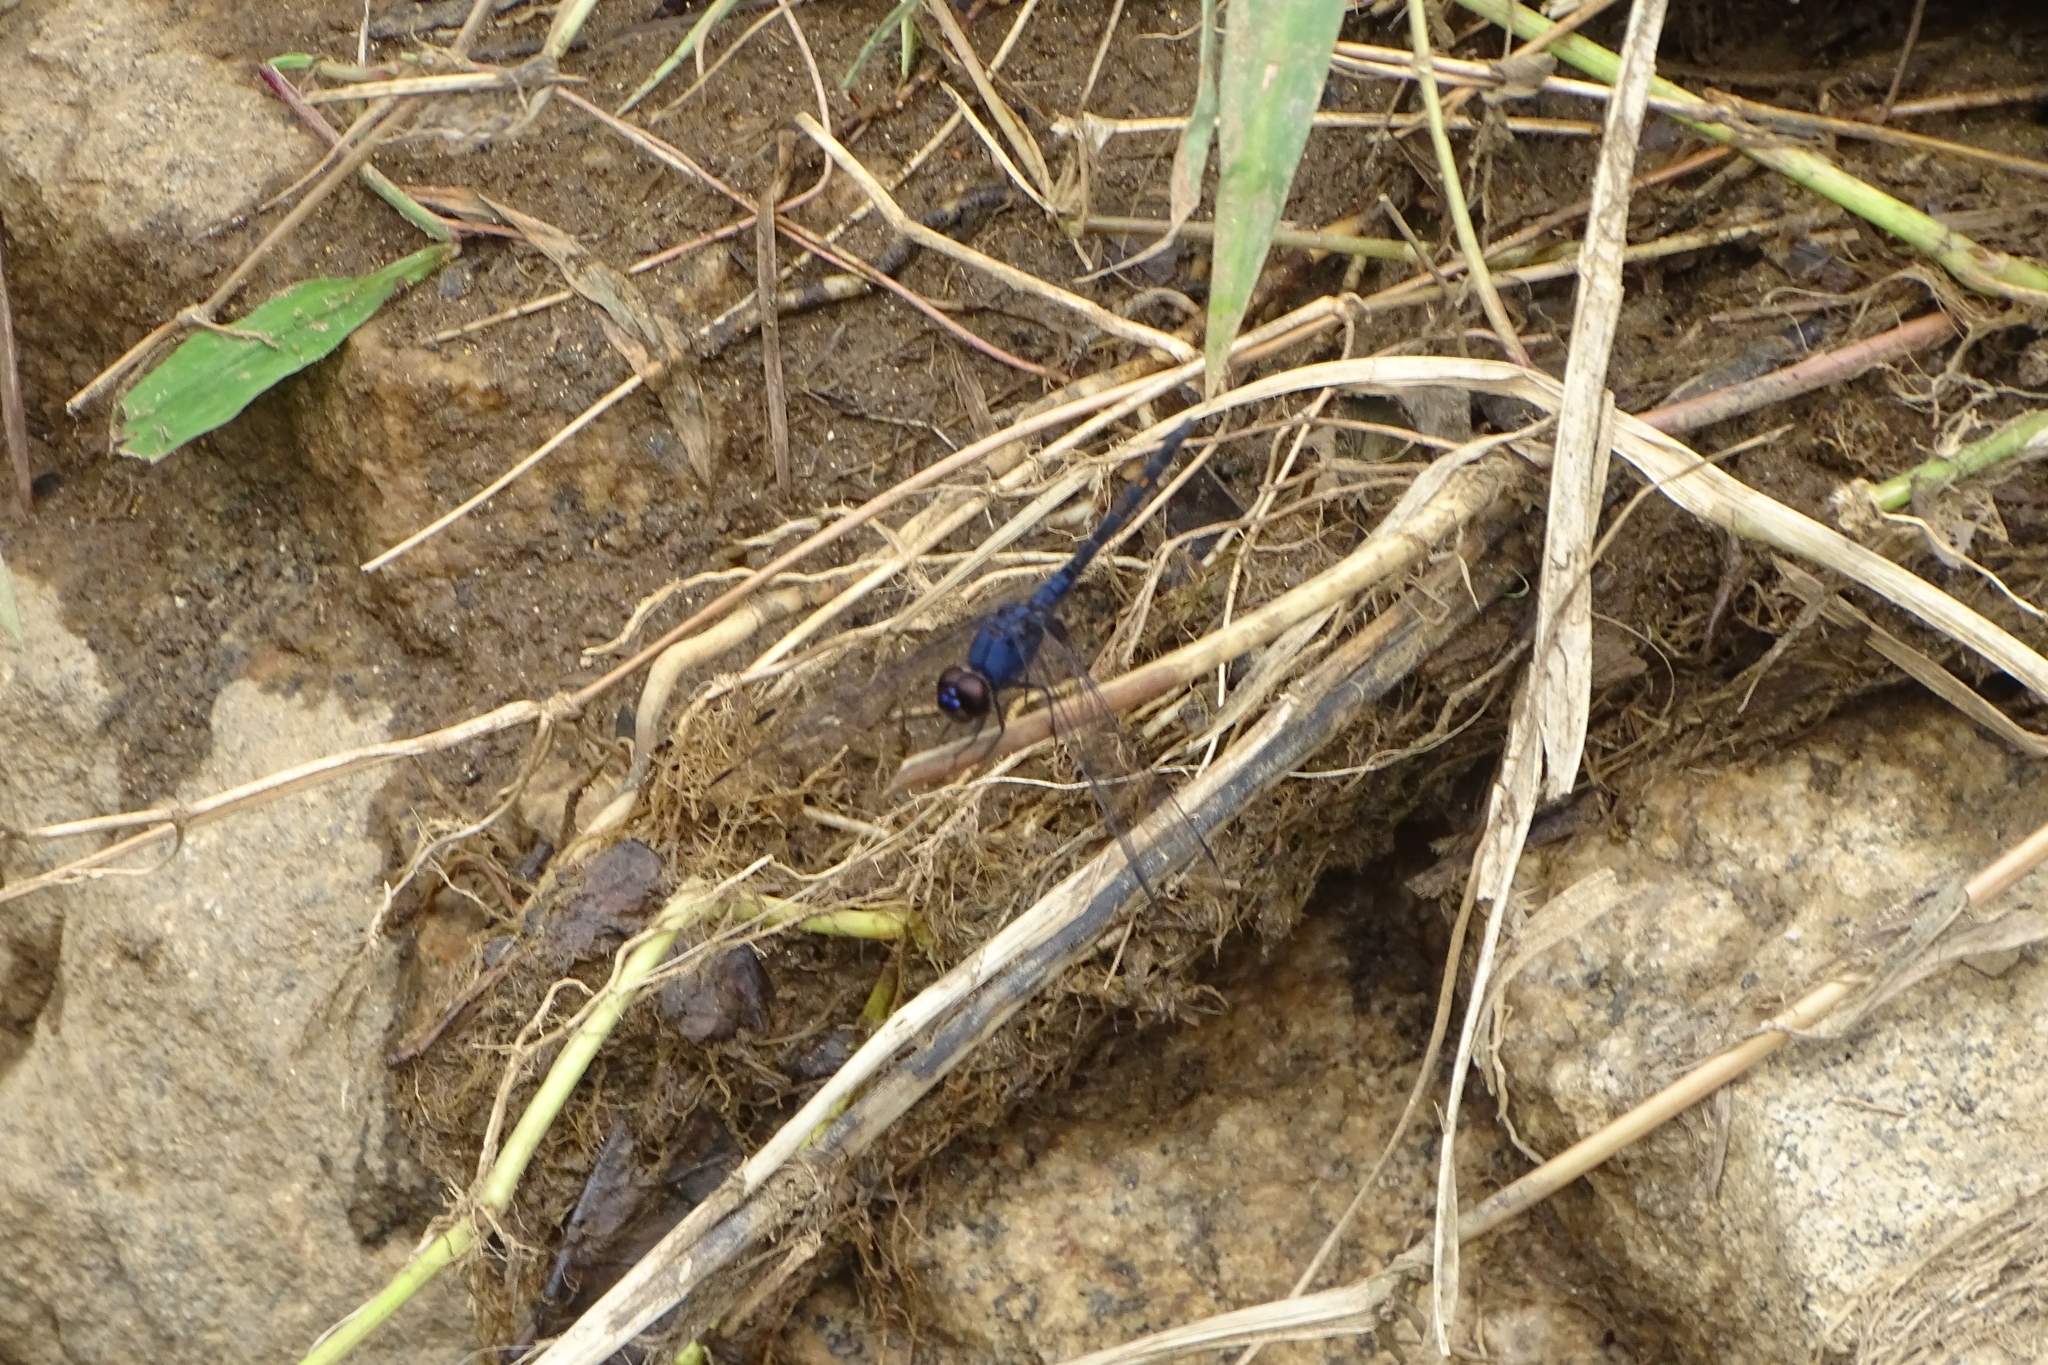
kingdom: Animalia
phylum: Arthropoda
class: Insecta
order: Odonata
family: Libellulidae
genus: Trithemis
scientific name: Trithemis festiva
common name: Indigo dropwing
